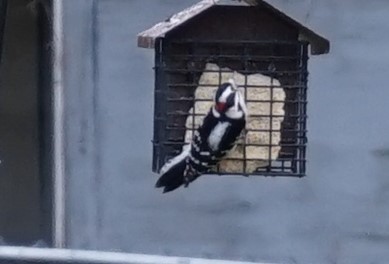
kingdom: Animalia
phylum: Chordata
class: Aves
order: Piciformes
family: Picidae
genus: Dryobates
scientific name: Dryobates pubescens
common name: Downy woodpecker
